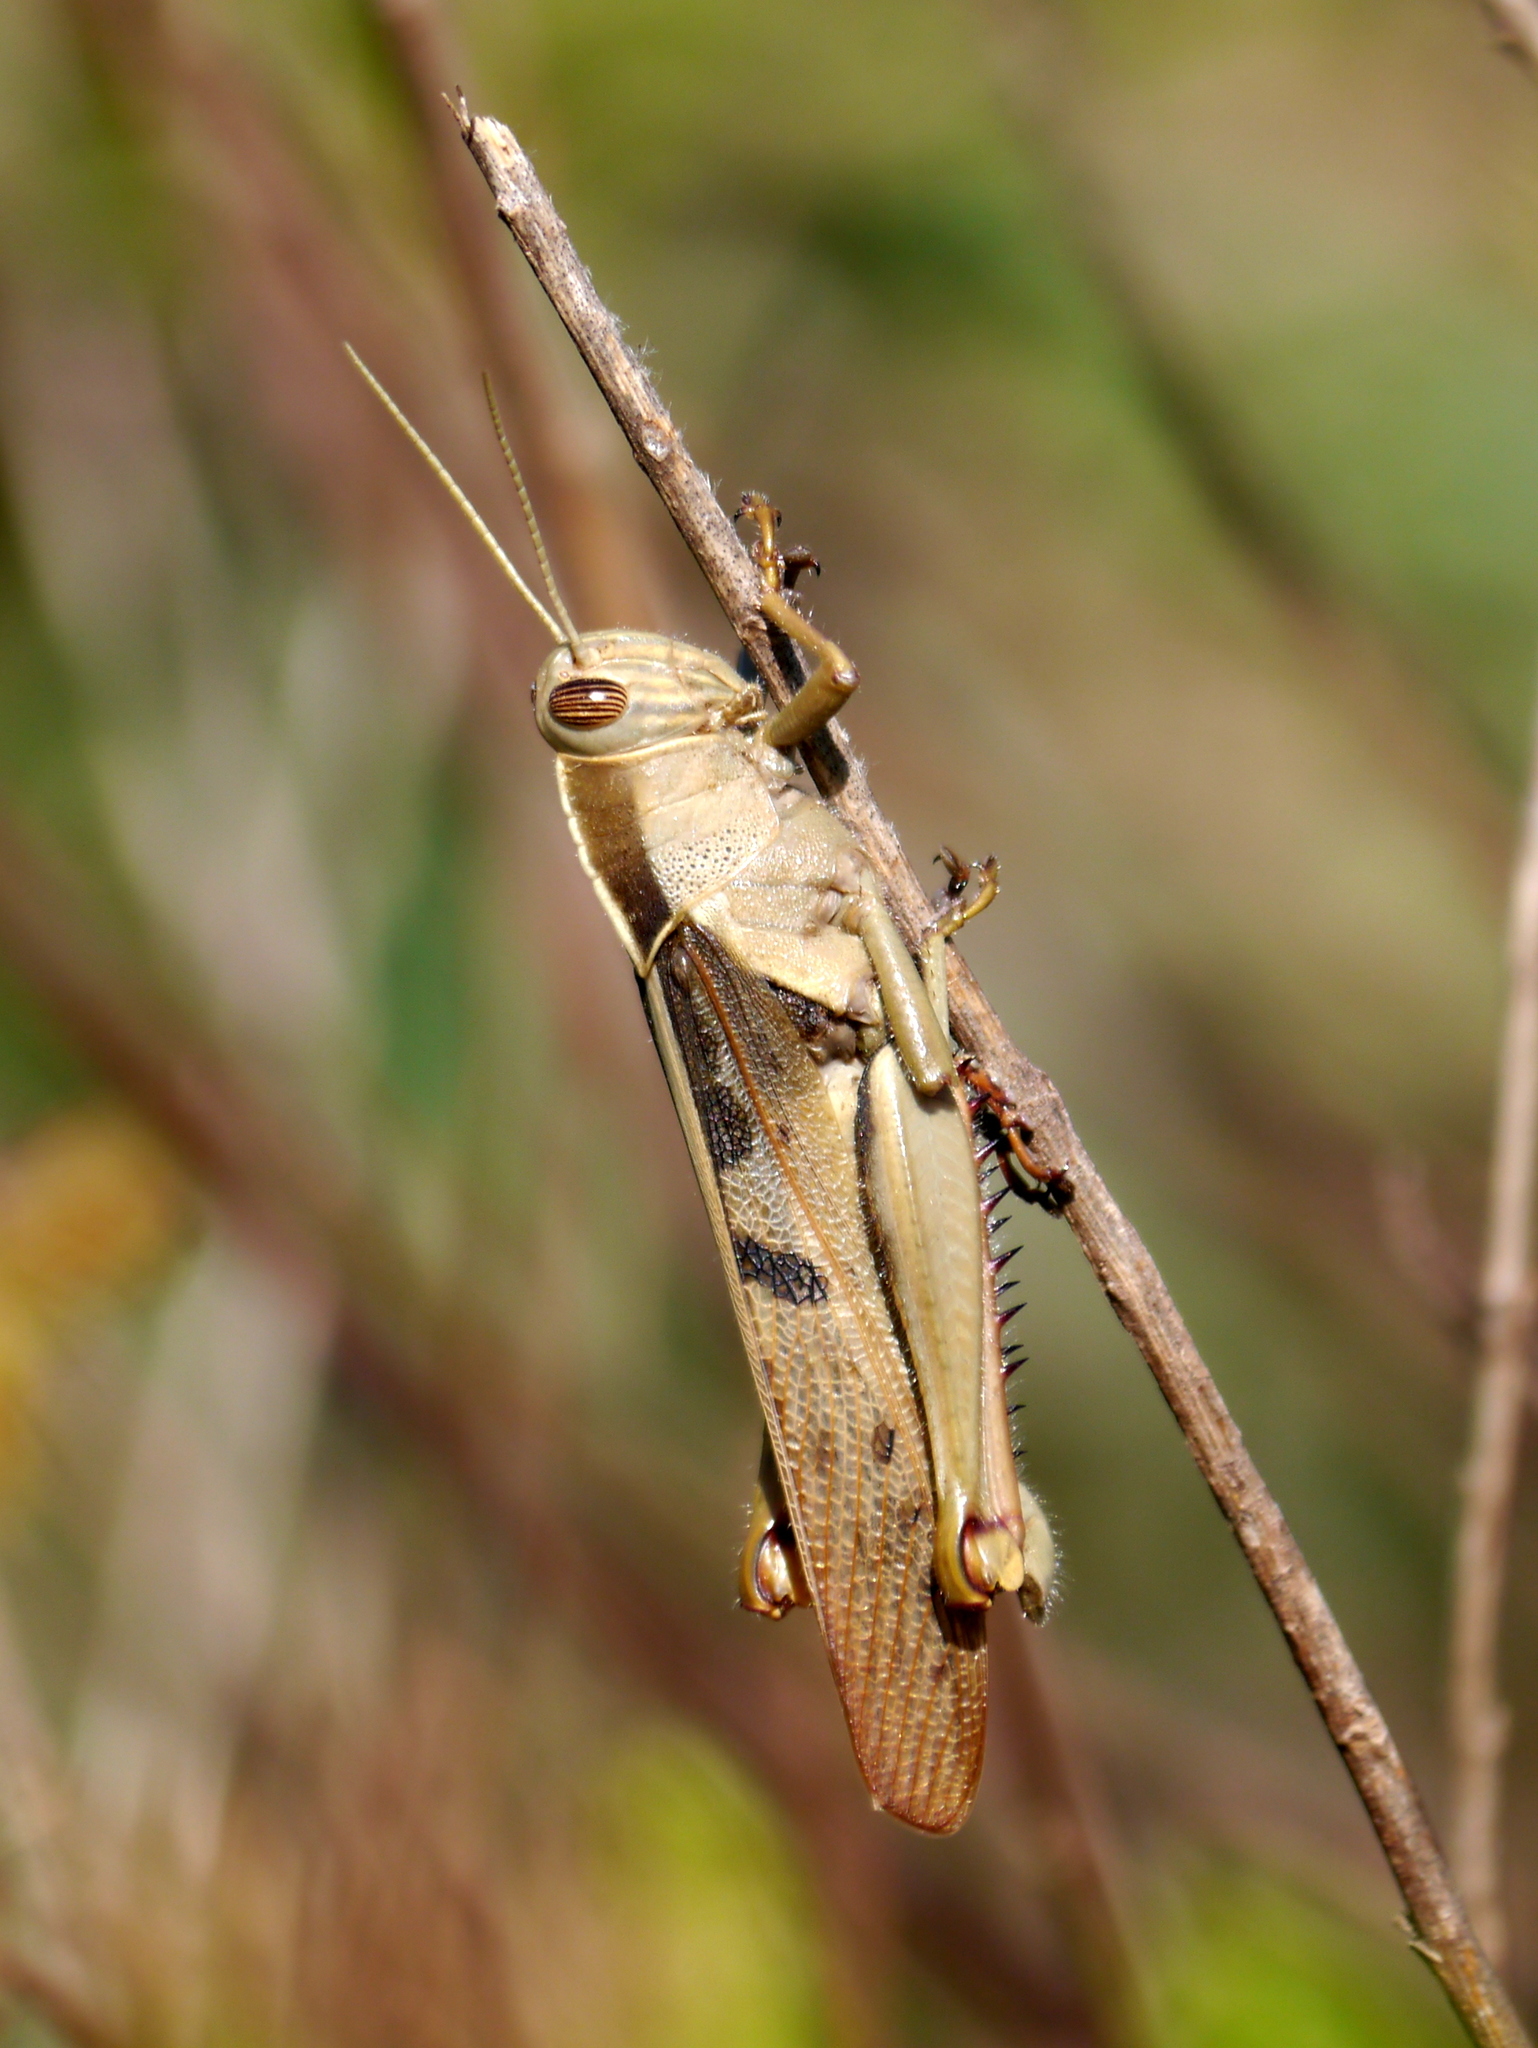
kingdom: Animalia
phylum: Arthropoda
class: Insecta
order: Orthoptera
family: Acrididae
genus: Acanthacris
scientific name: Acanthacris ruficornis
